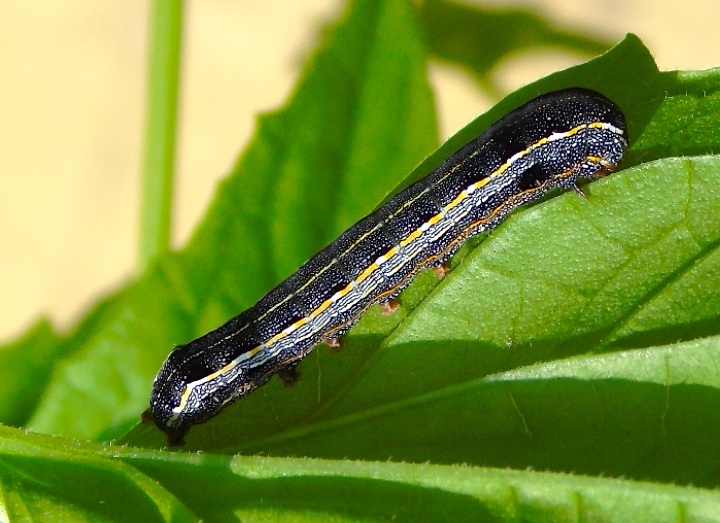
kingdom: Animalia
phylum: Arthropoda
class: Insecta
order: Lepidoptera
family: Noctuidae
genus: Spodoptera
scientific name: Spodoptera
